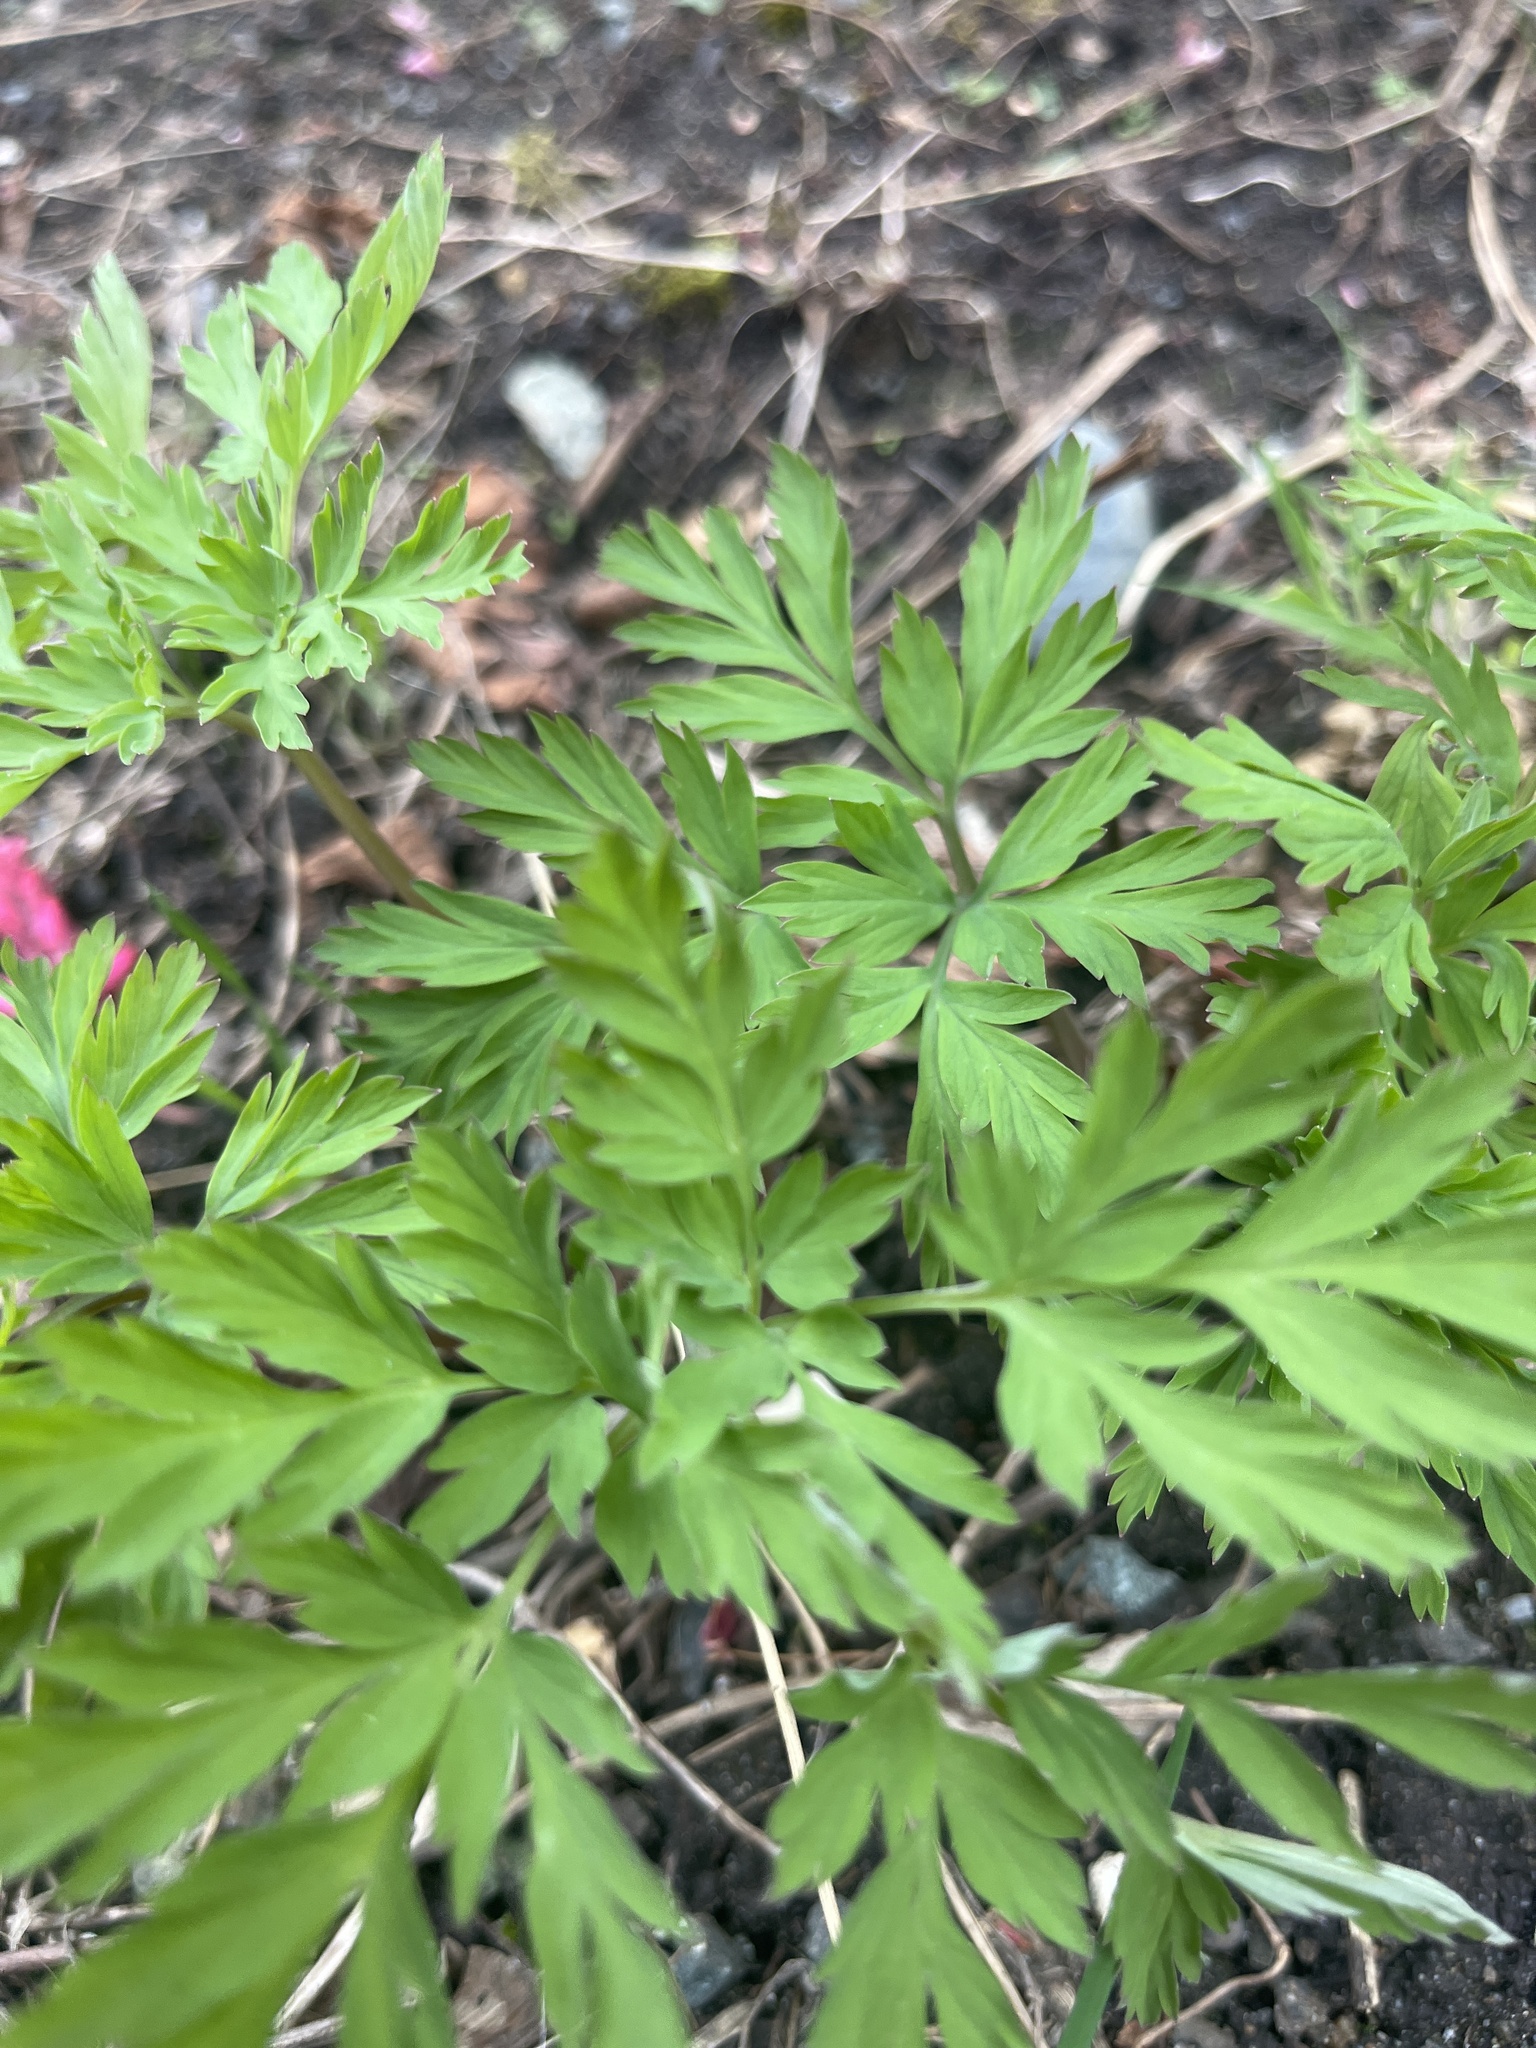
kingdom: Plantae
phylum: Tracheophyta
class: Magnoliopsida
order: Ranunculales
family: Papaveraceae
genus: Dicentra
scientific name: Dicentra formosa
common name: Bleeding-heart
